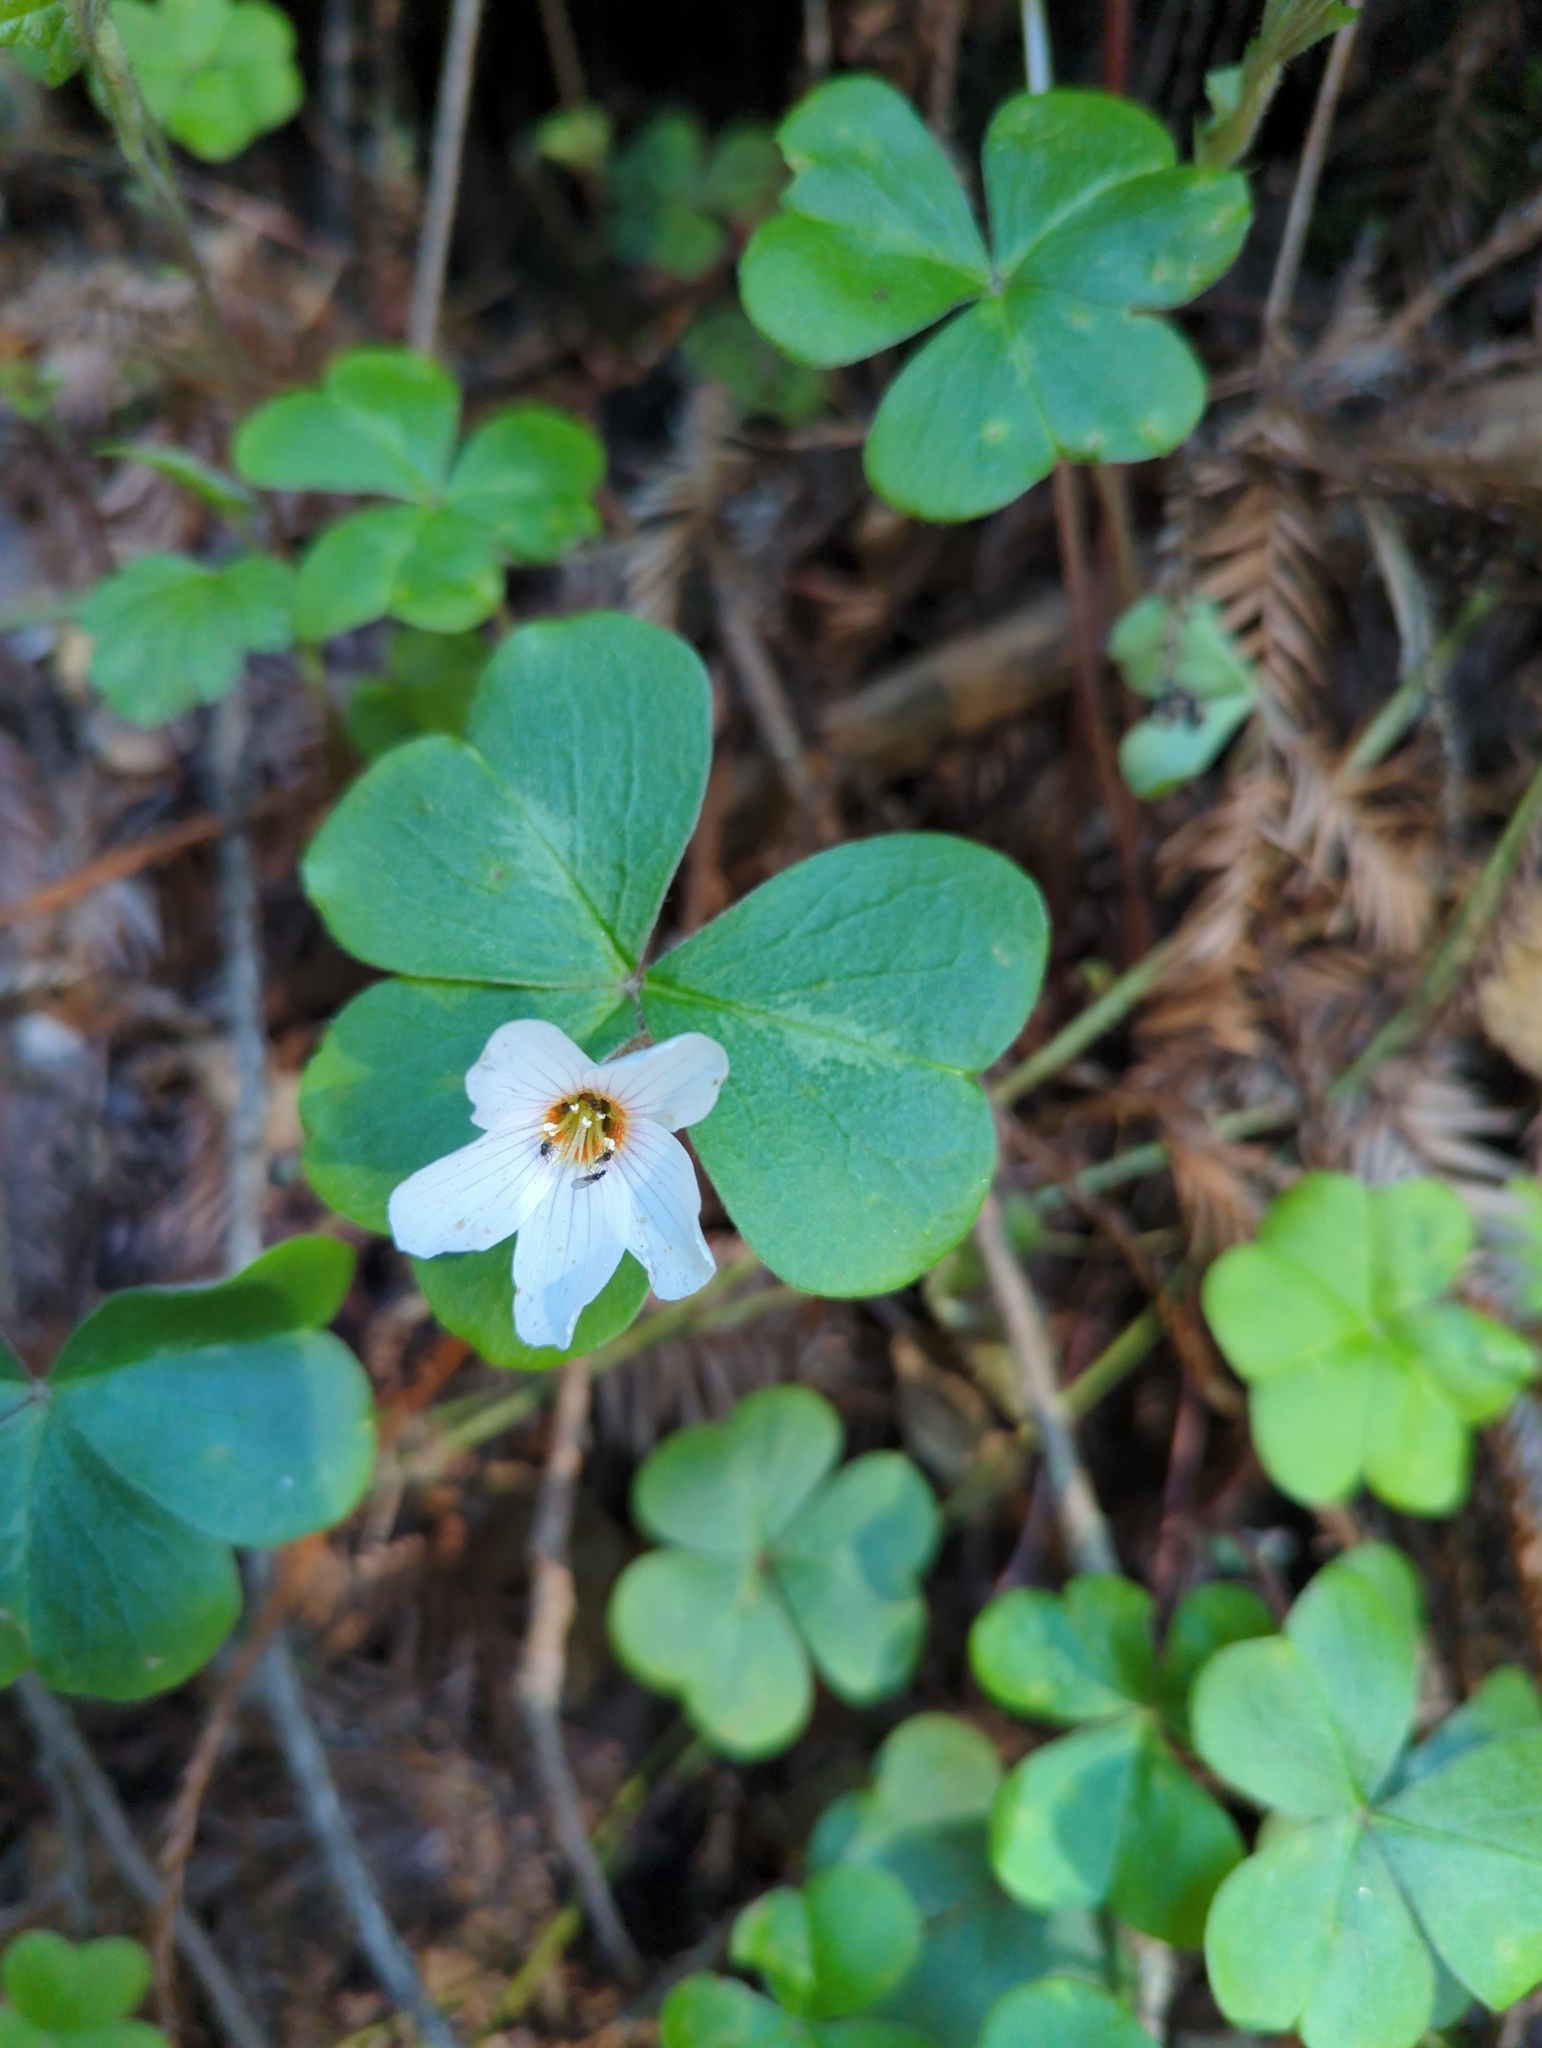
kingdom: Plantae
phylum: Tracheophyta
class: Magnoliopsida
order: Oxalidales
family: Oxalidaceae
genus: Oxalis
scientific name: Oxalis oregana
